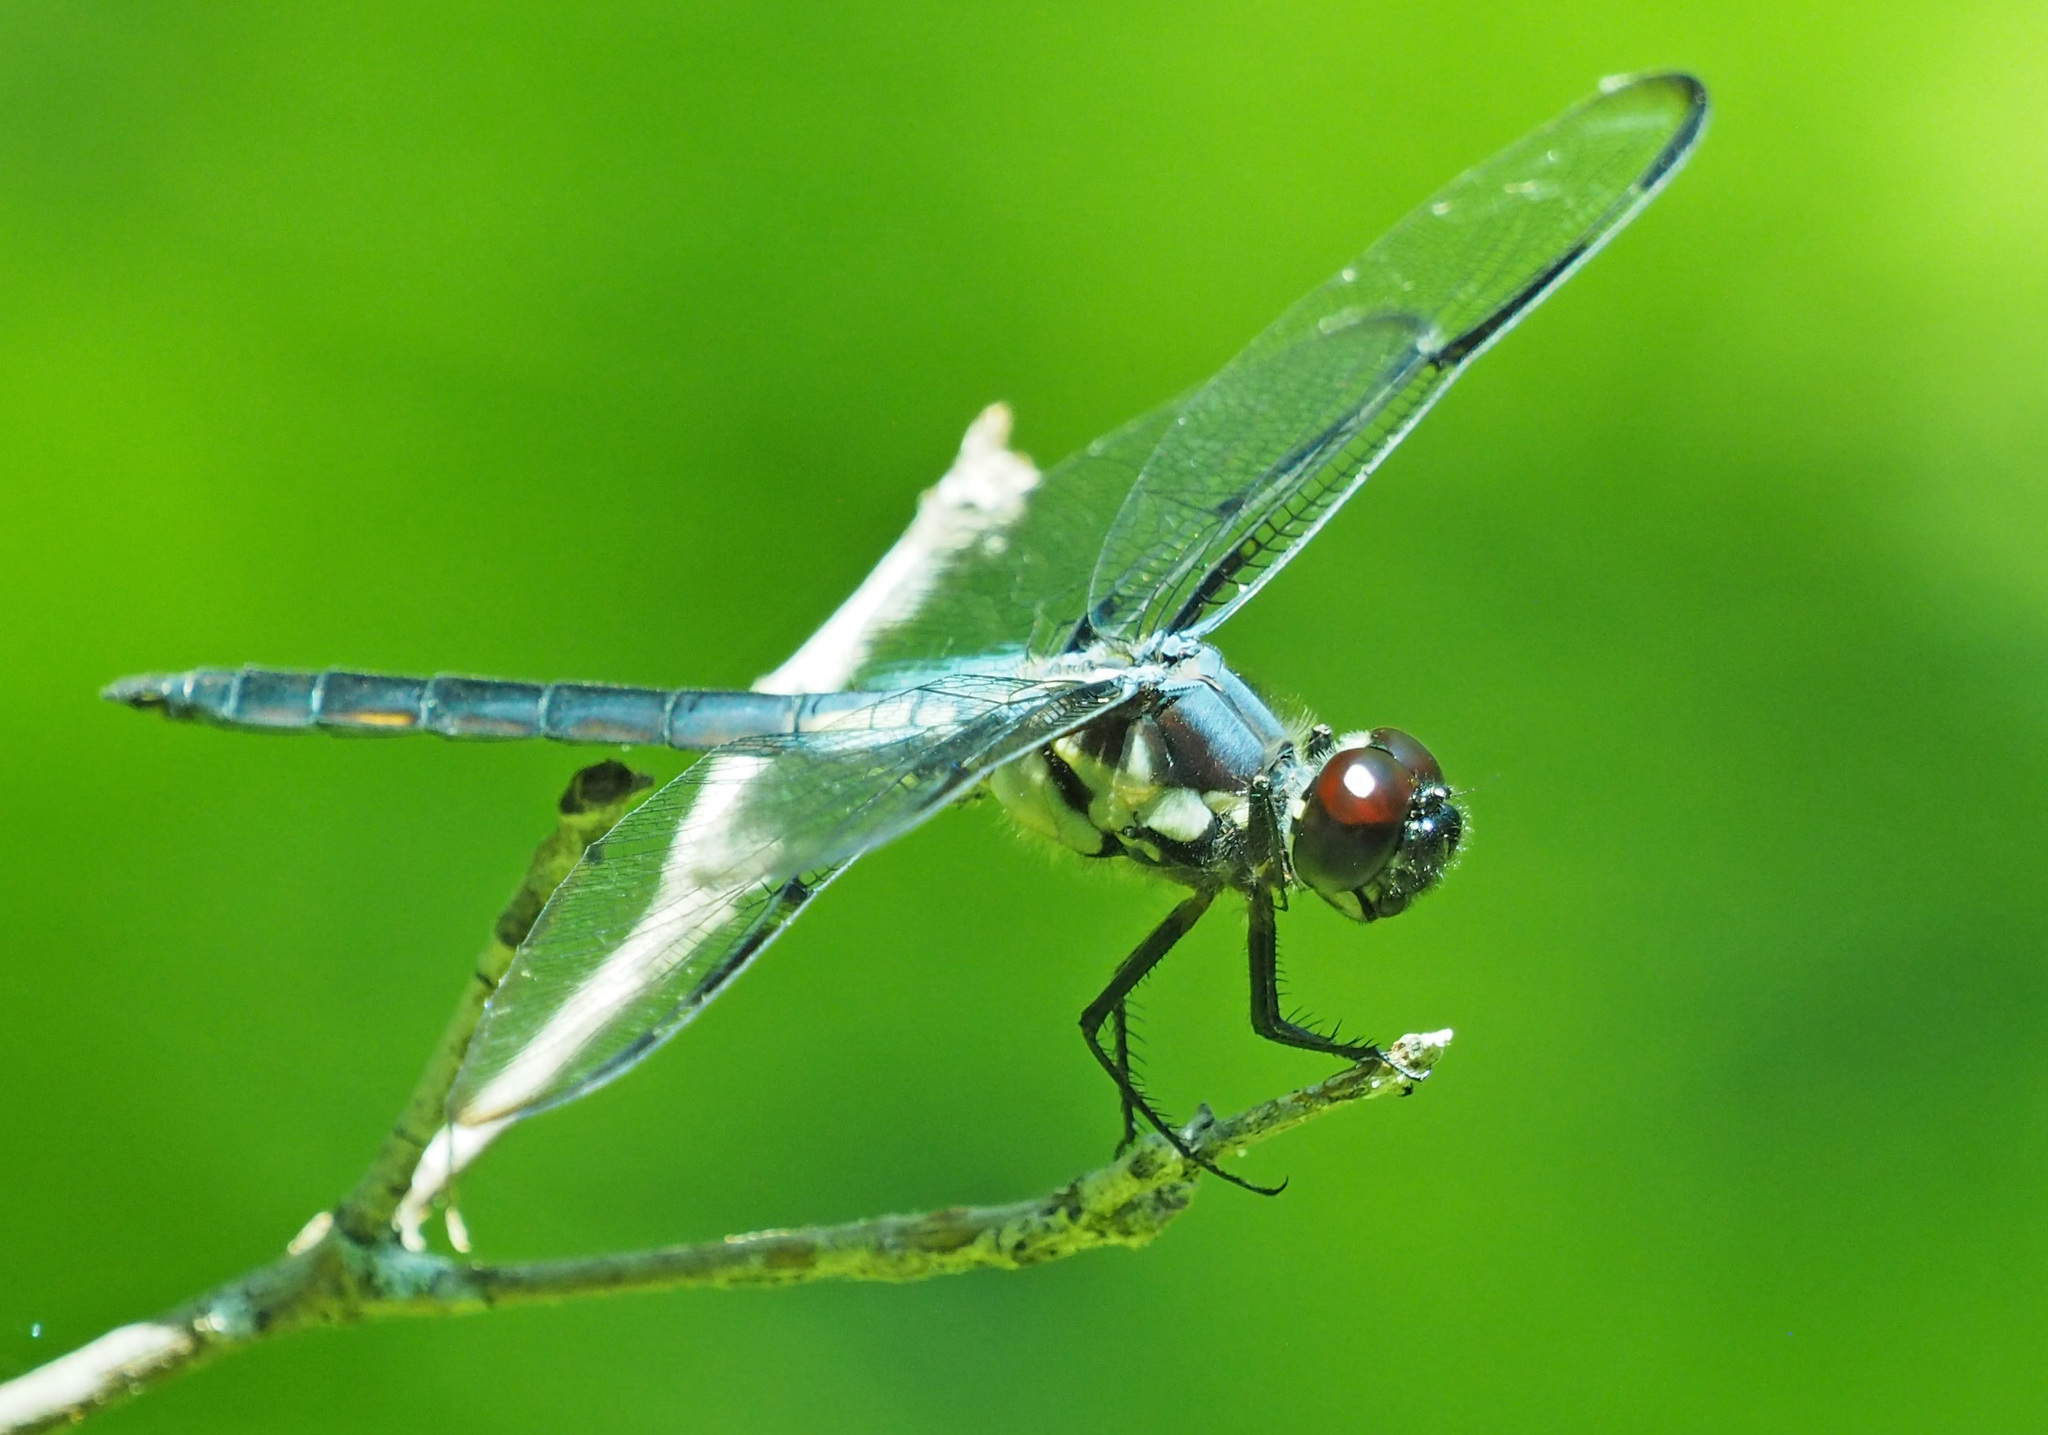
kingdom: Animalia
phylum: Arthropoda
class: Insecta
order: Odonata
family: Libellulidae
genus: Libellula
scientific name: Libellula axilena
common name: Bar-winged skimmer
